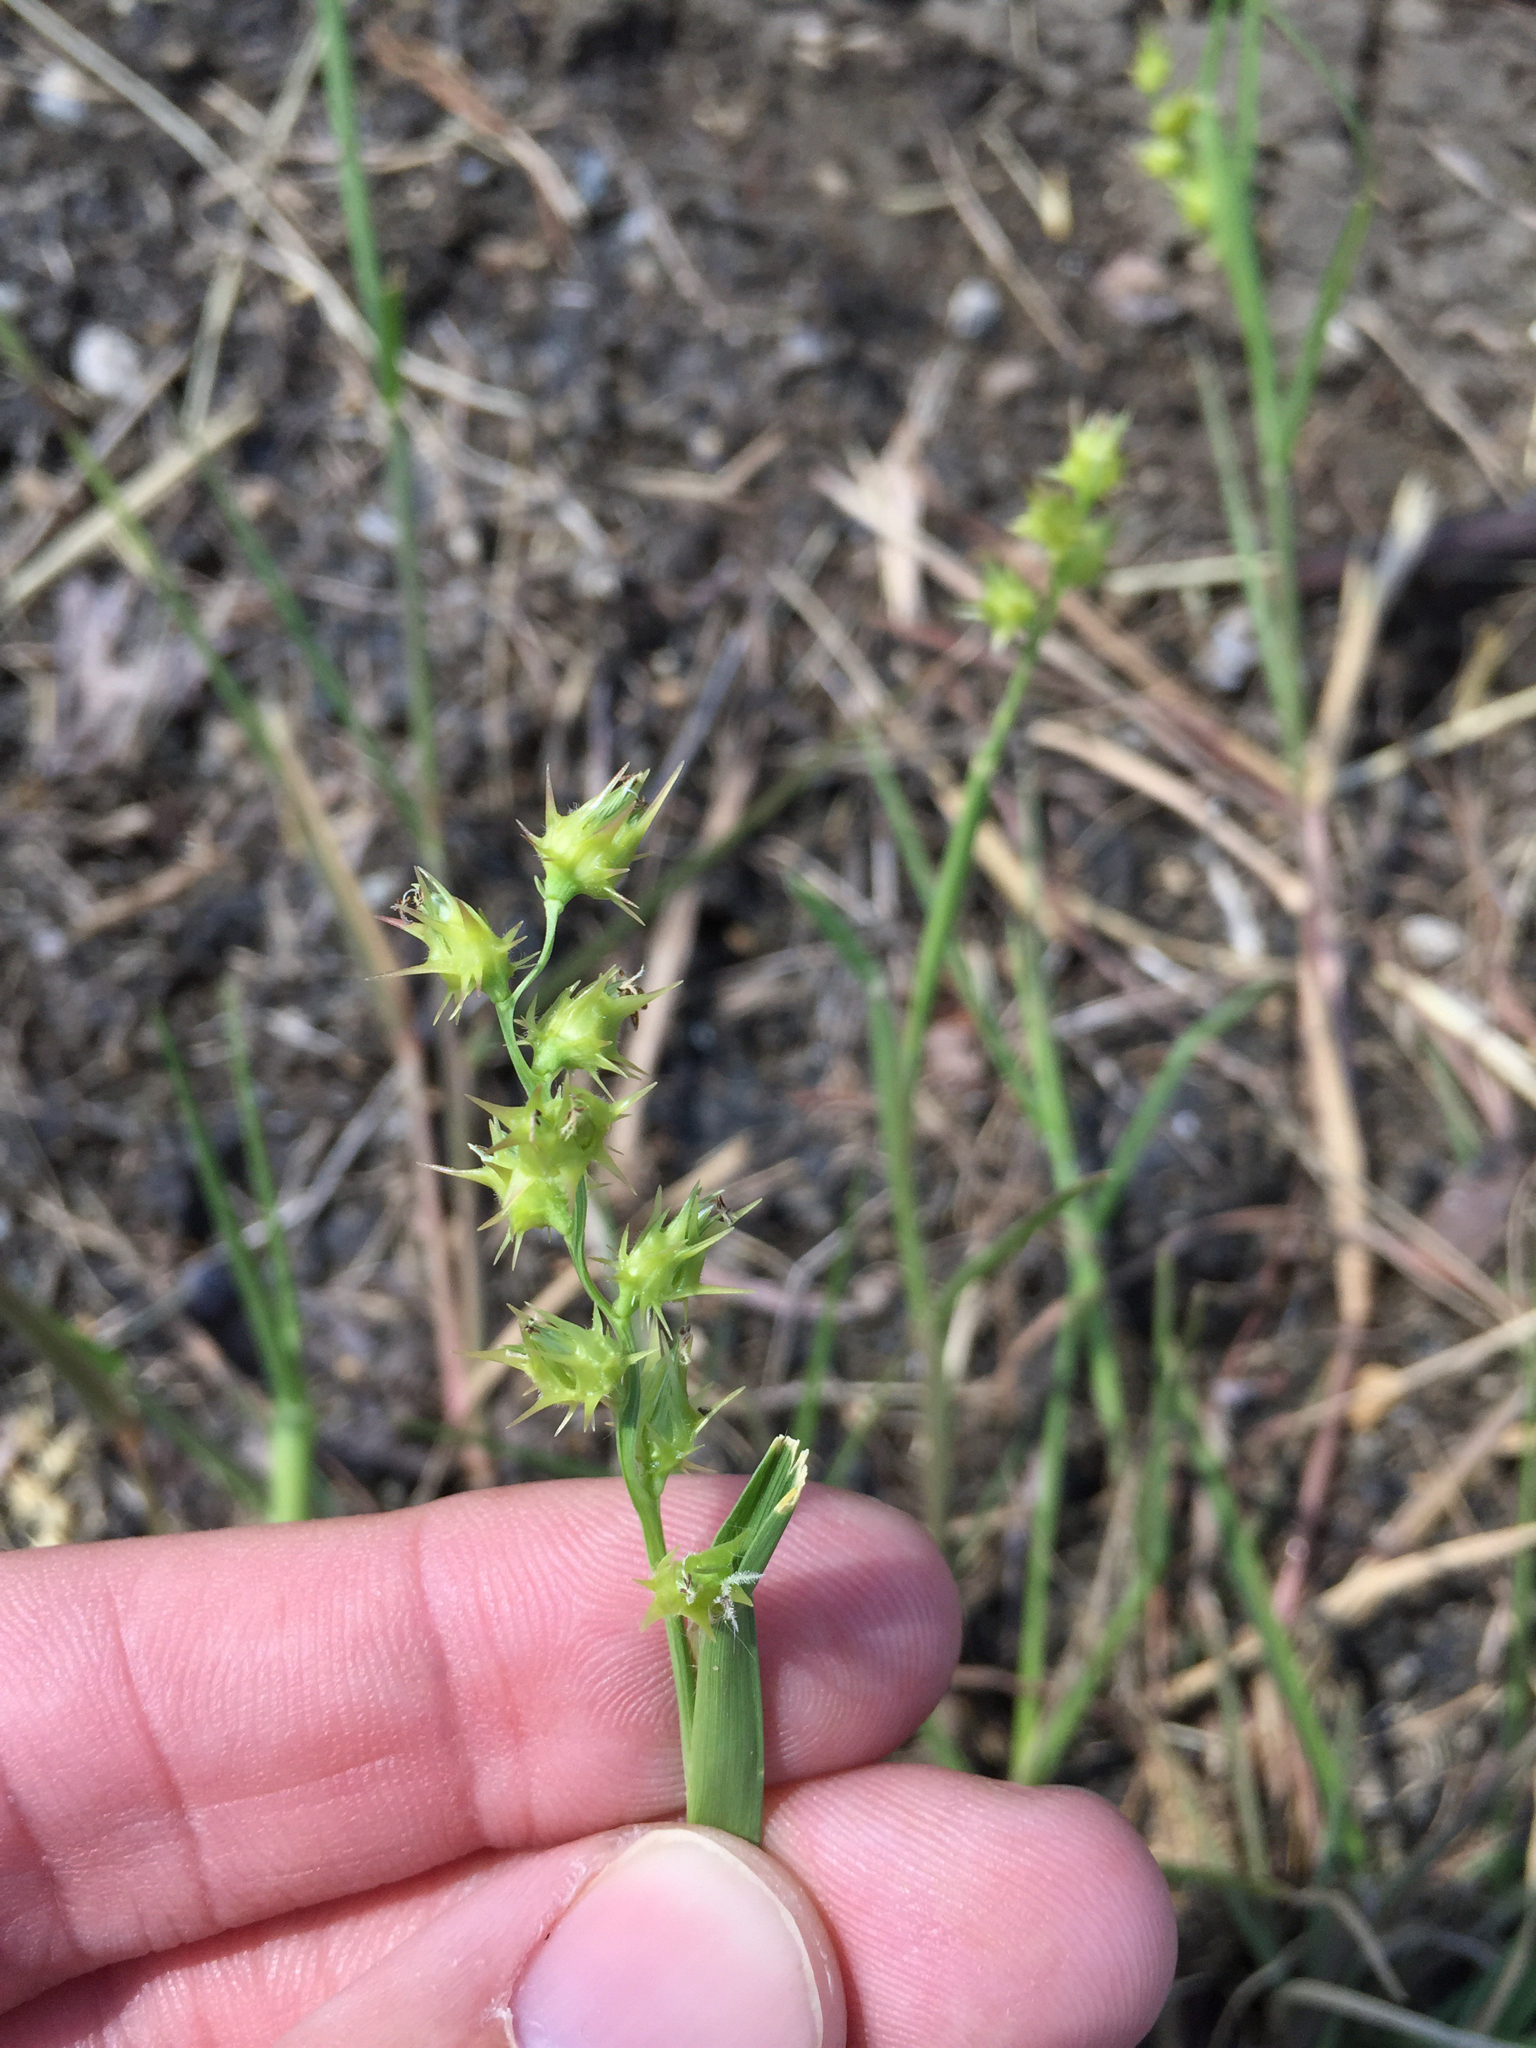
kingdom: Plantae
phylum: Tracheophyta
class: Liliopsida
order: Poales
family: Poaceae
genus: Cenchrus
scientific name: Cenchrus spinifex
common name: Coast sandbur
